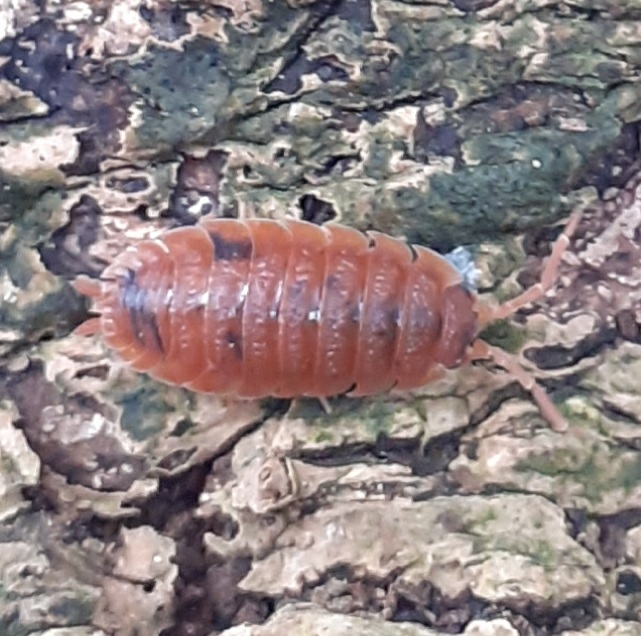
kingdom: Animalia
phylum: Arthropoda
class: Malacostraca
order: Isopoda
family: Porcellionidae
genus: Porcellio
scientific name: Porcellio scaber
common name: Common rough woodlouse
